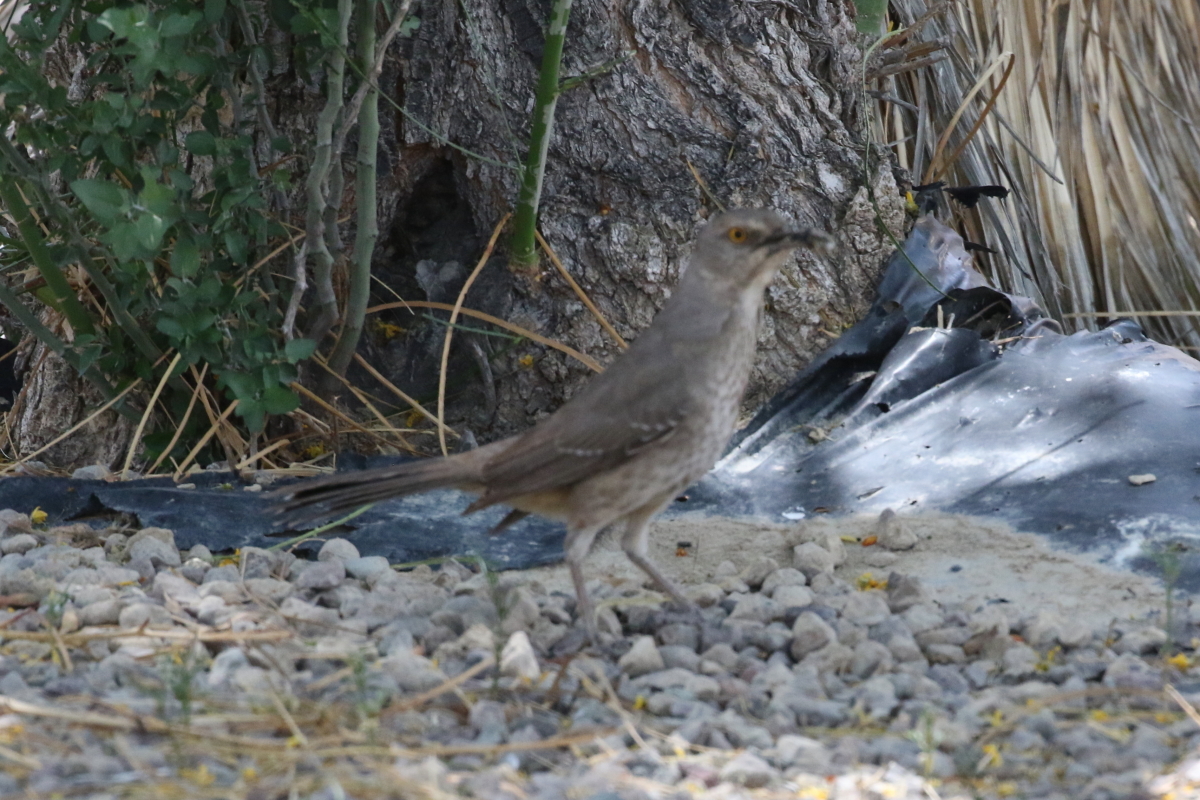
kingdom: Animalia
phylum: Chordata
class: Aves
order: Passeriformes
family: Mimidae
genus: Toxostoma
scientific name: Toxostoma curvirostre
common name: Curve-billed thrasher
